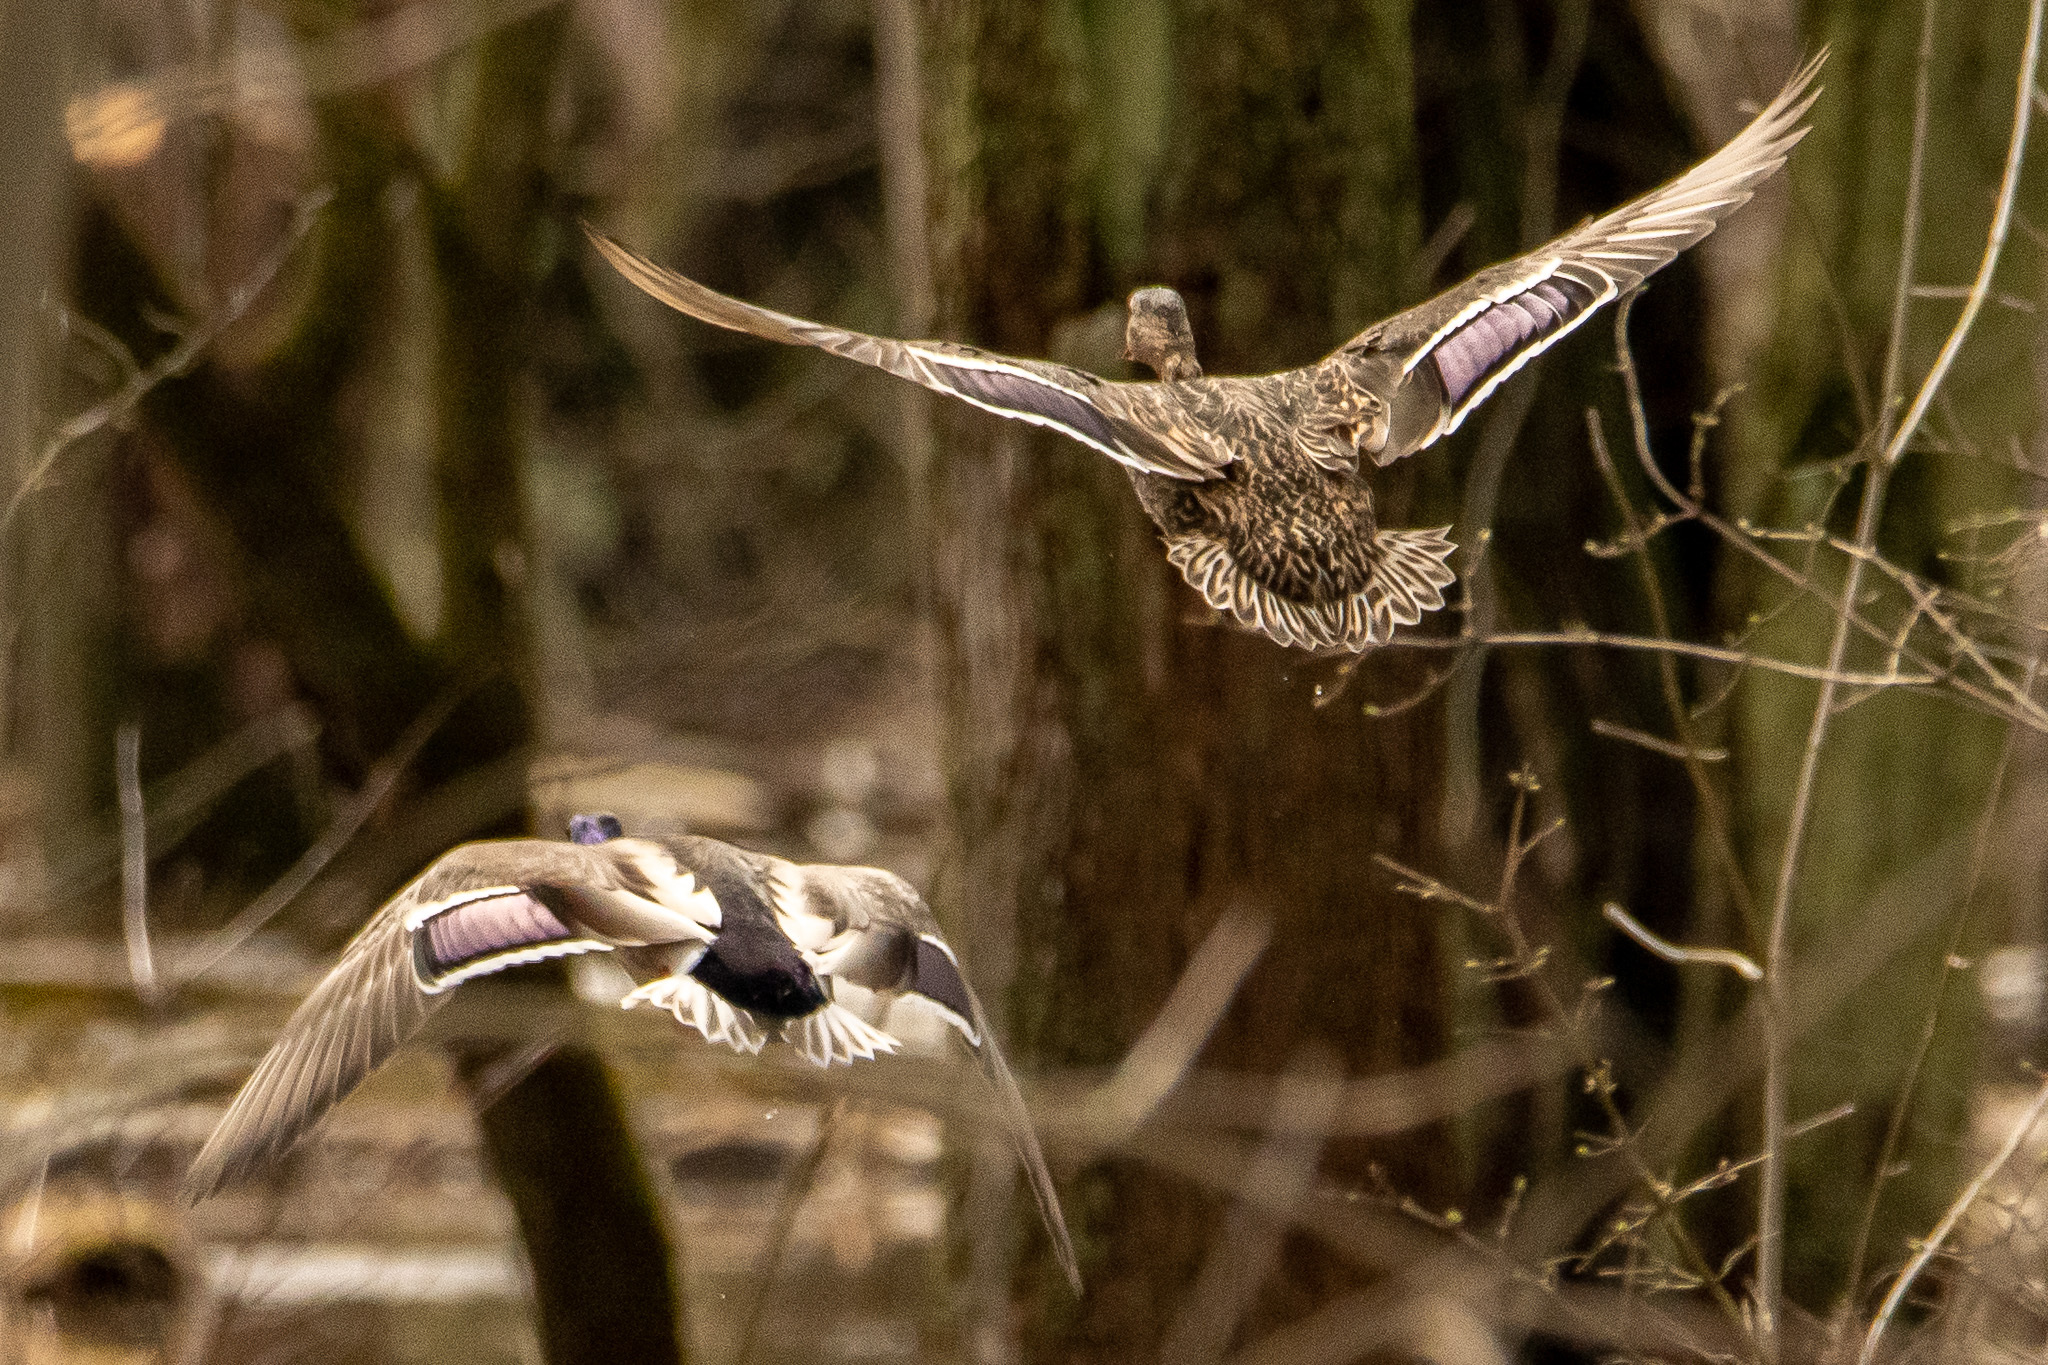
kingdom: Animalia
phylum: Chordata
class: Aves
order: Anseriformes
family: Anatidae
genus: Anas
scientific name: Anas platyrhynchos
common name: Mallard
